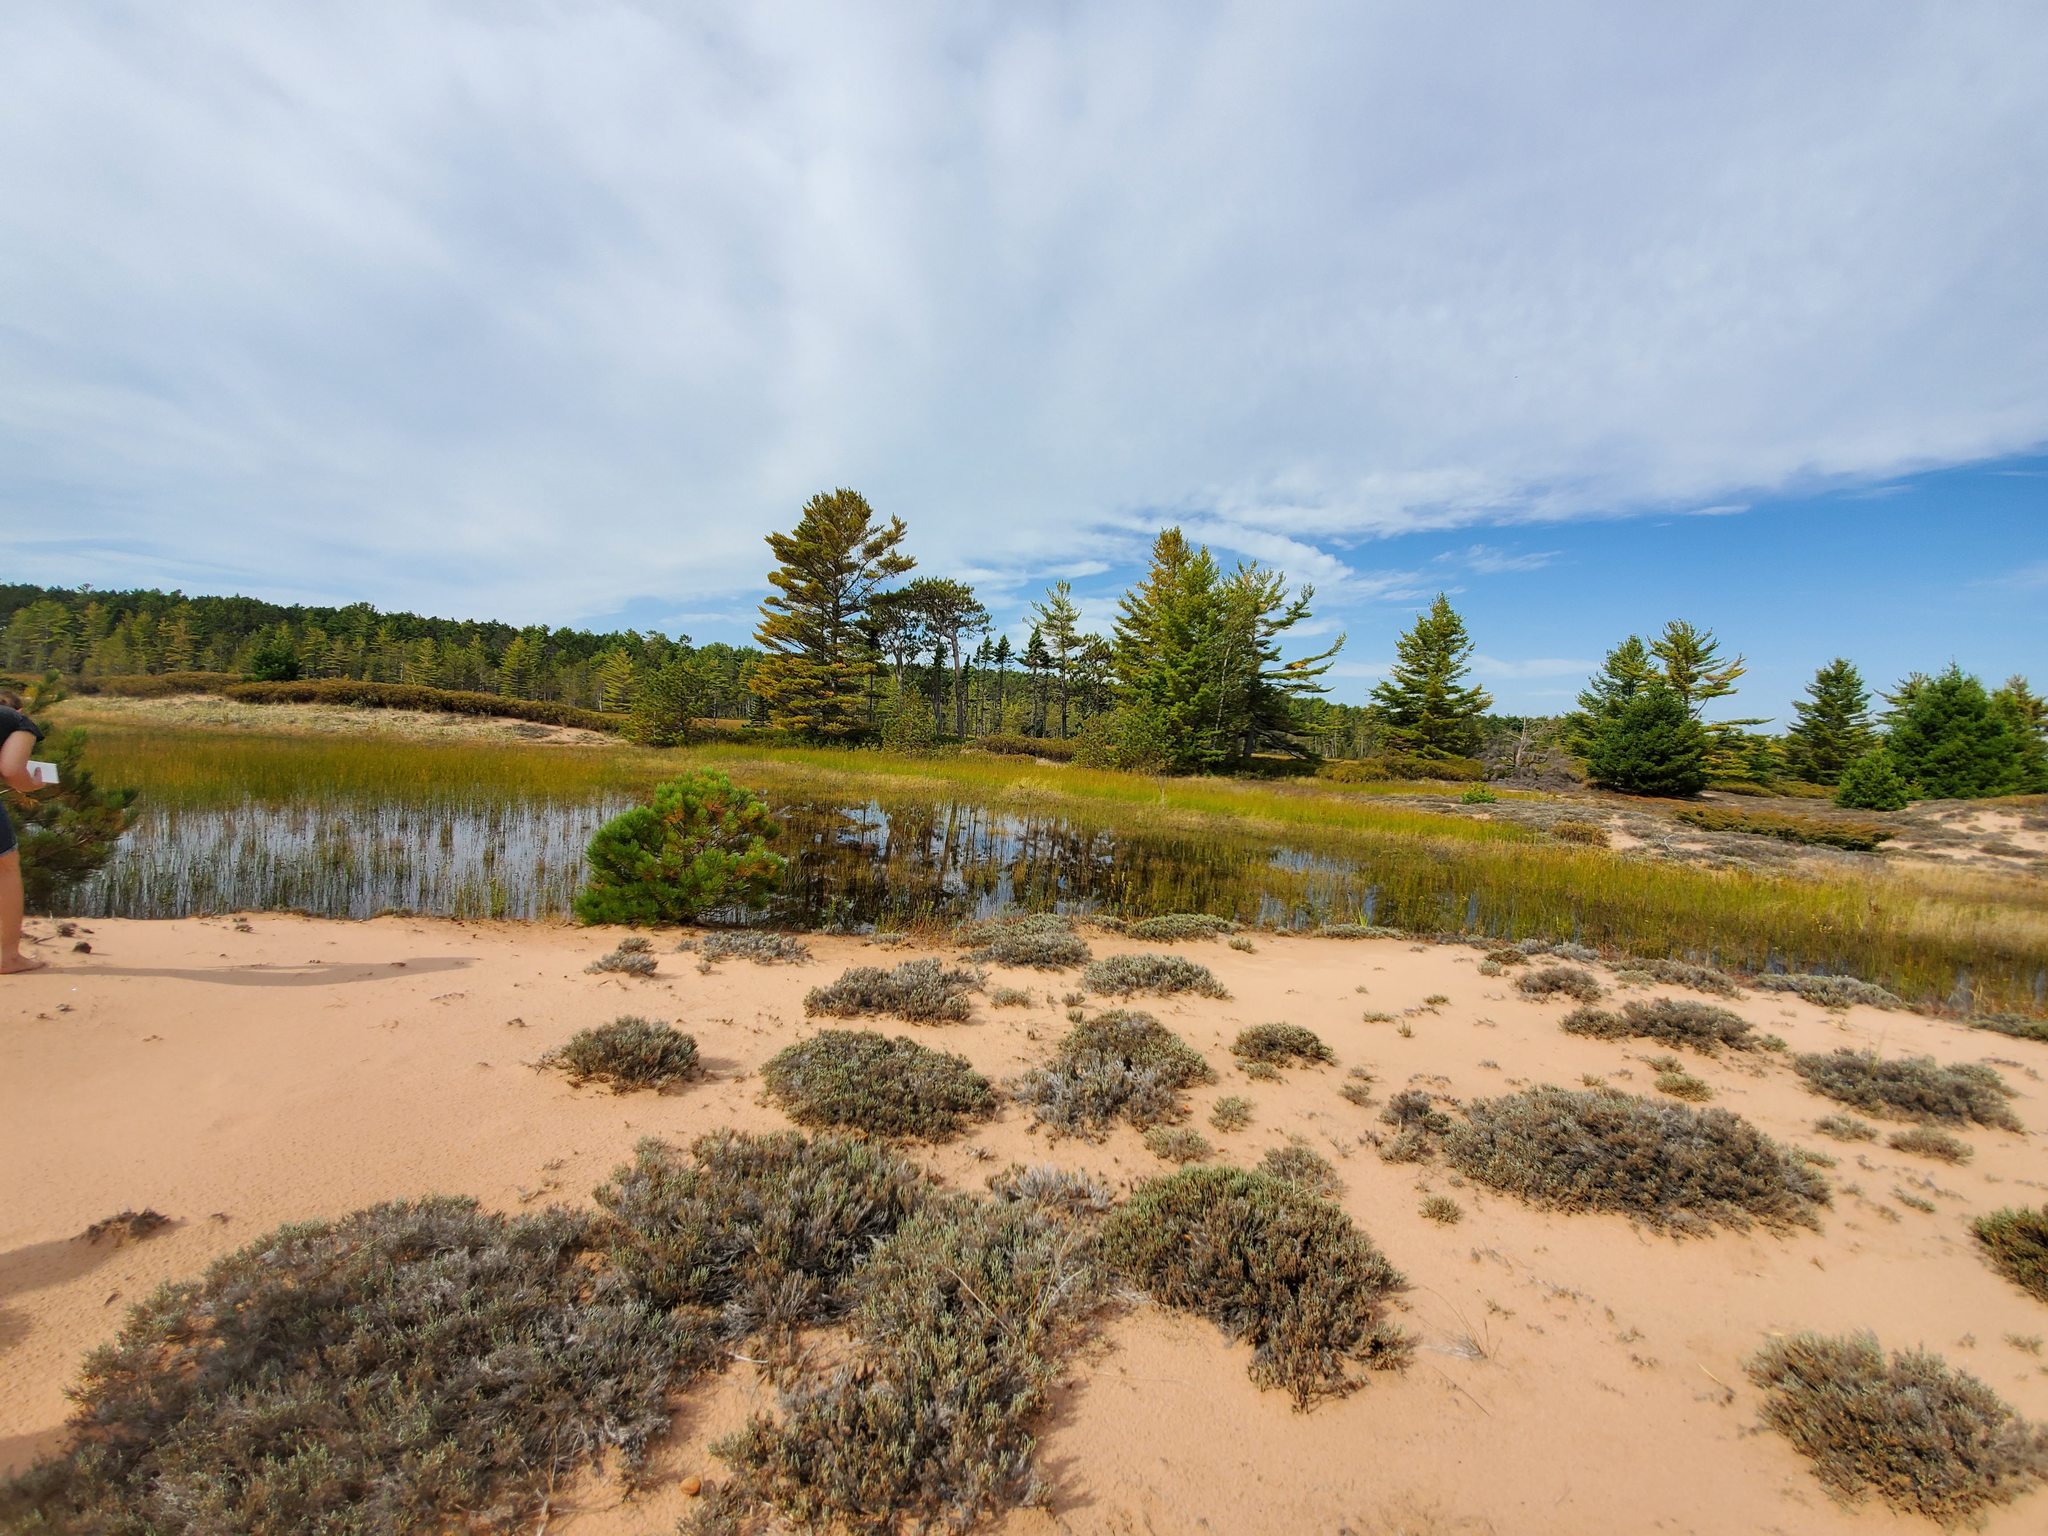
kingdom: Plantae
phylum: Tracheophyta
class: Magnoliopsida
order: Malvales
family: Cistaceae
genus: Hudsonia
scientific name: Hudsonia tomentosa
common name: Beach-heath
